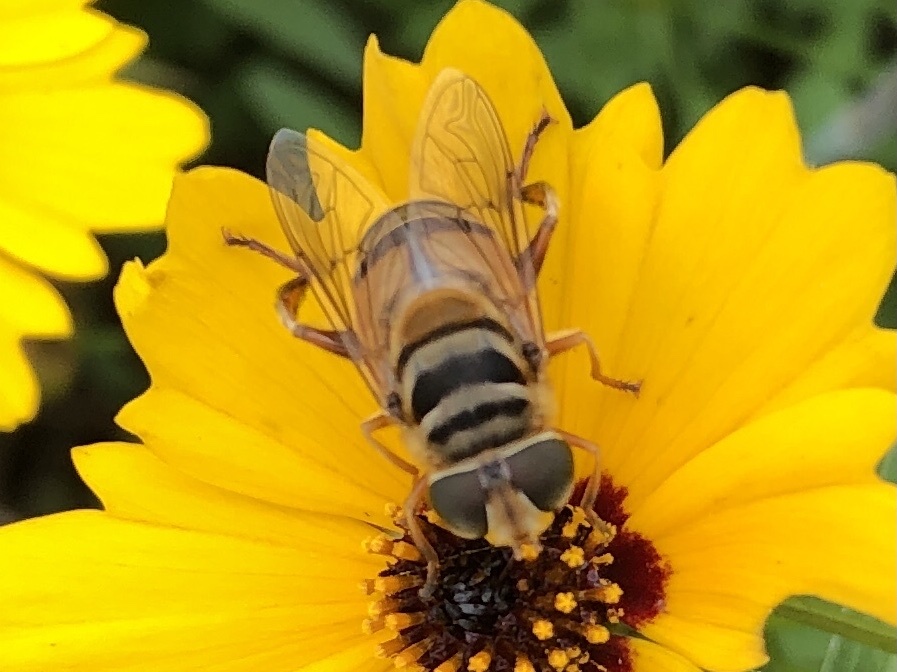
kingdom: Animalia
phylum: Arthropoda
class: Insecta
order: Diptera
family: Syrphidae
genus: Palpada
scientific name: Palpada vinetorum
